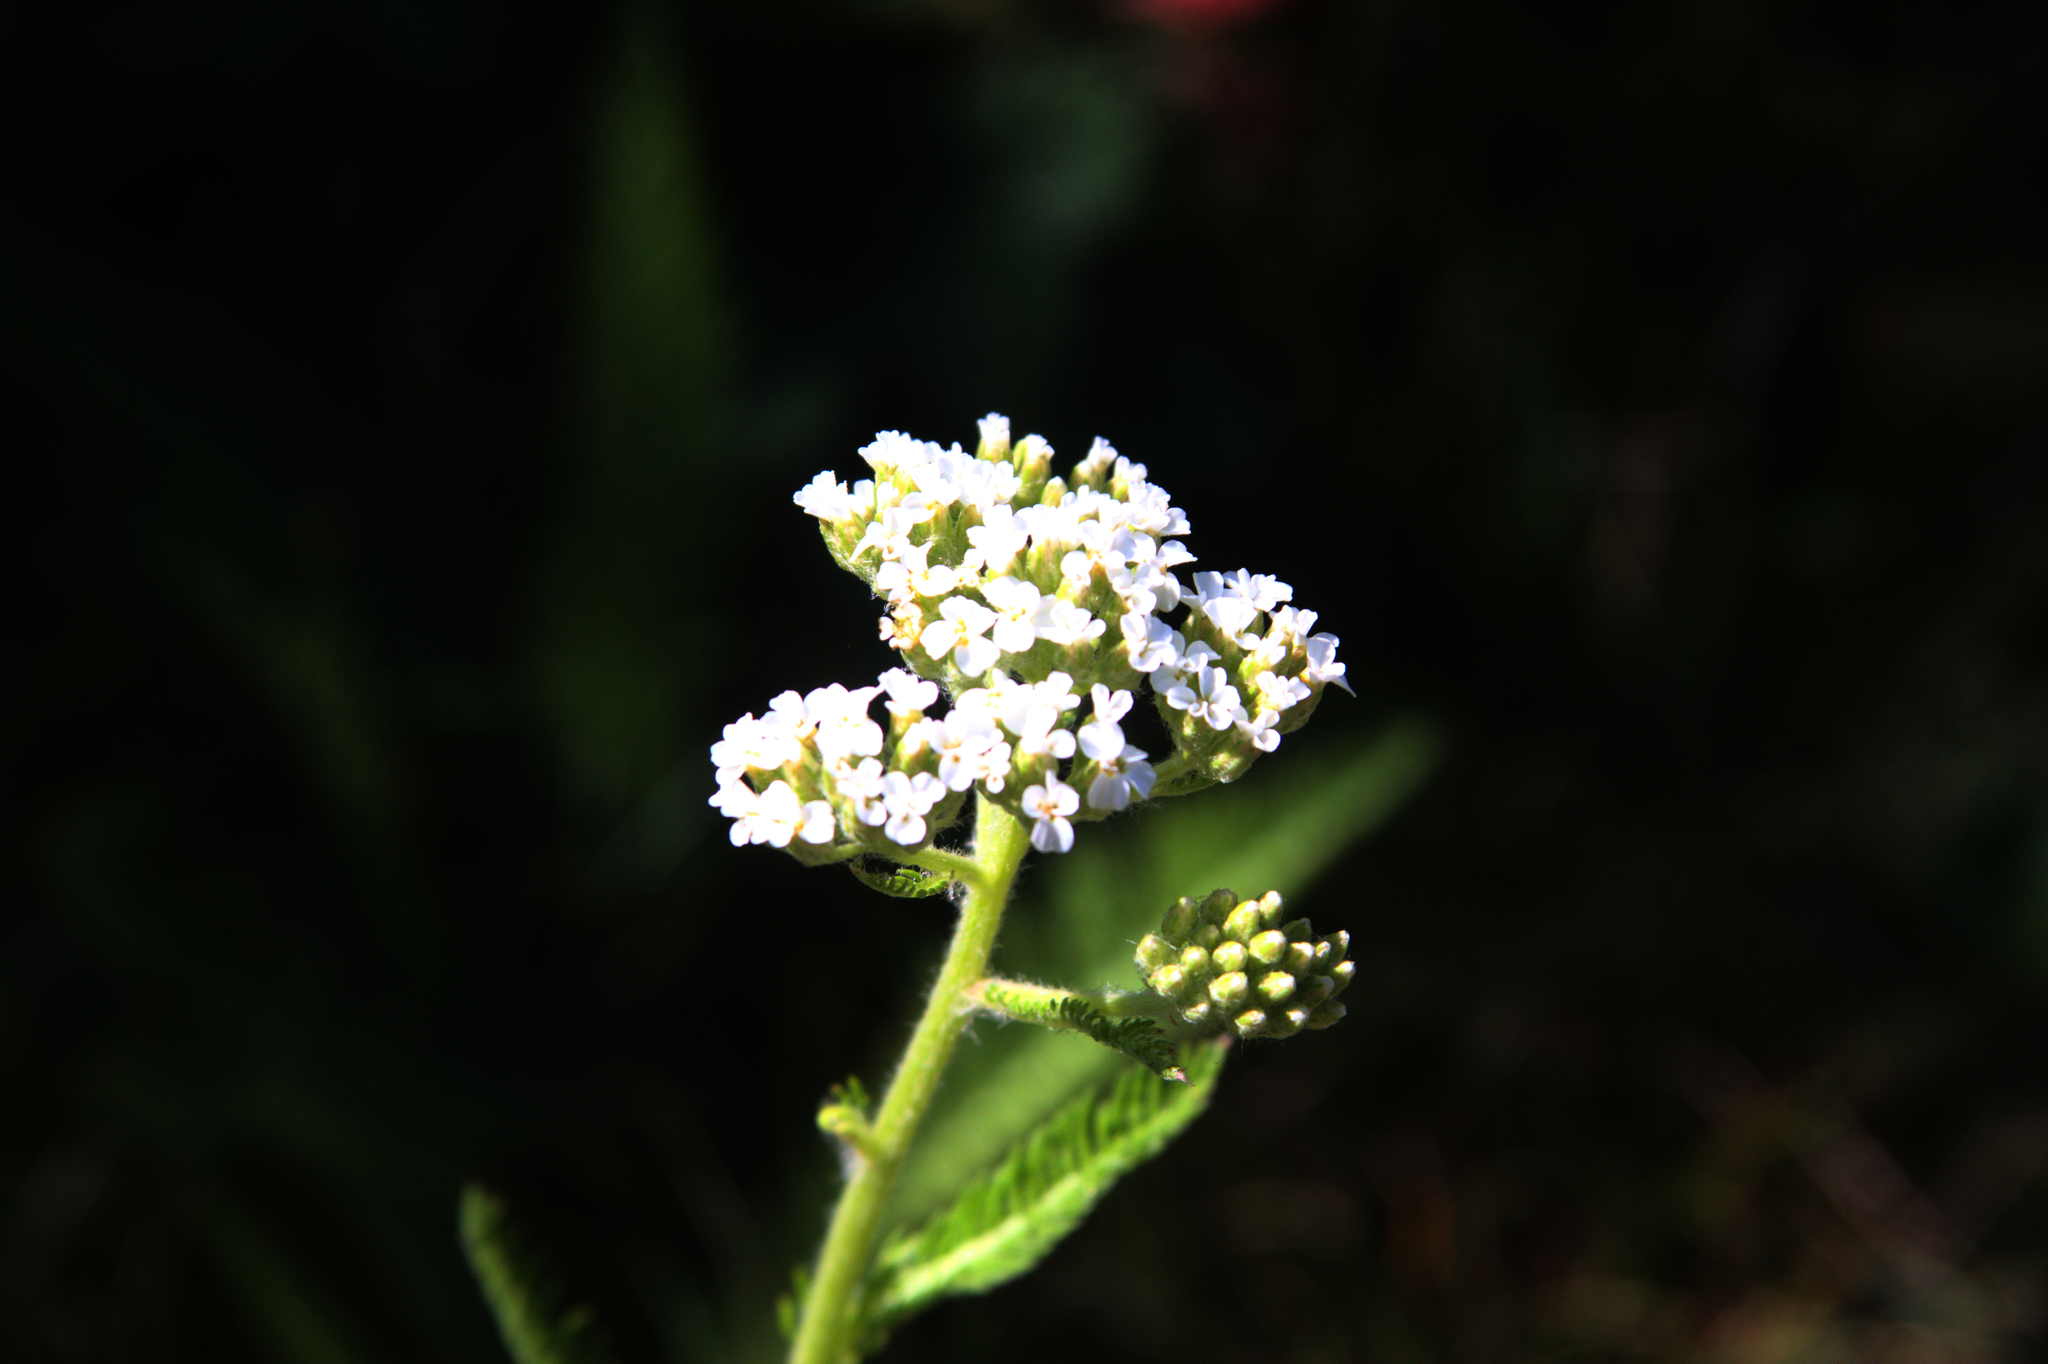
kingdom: Plantae
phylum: Tracheophyta
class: Magnoliopsida
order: Asterales
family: Asteraceae
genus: Achillea
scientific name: Achillea millefolium
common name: Yarrow
